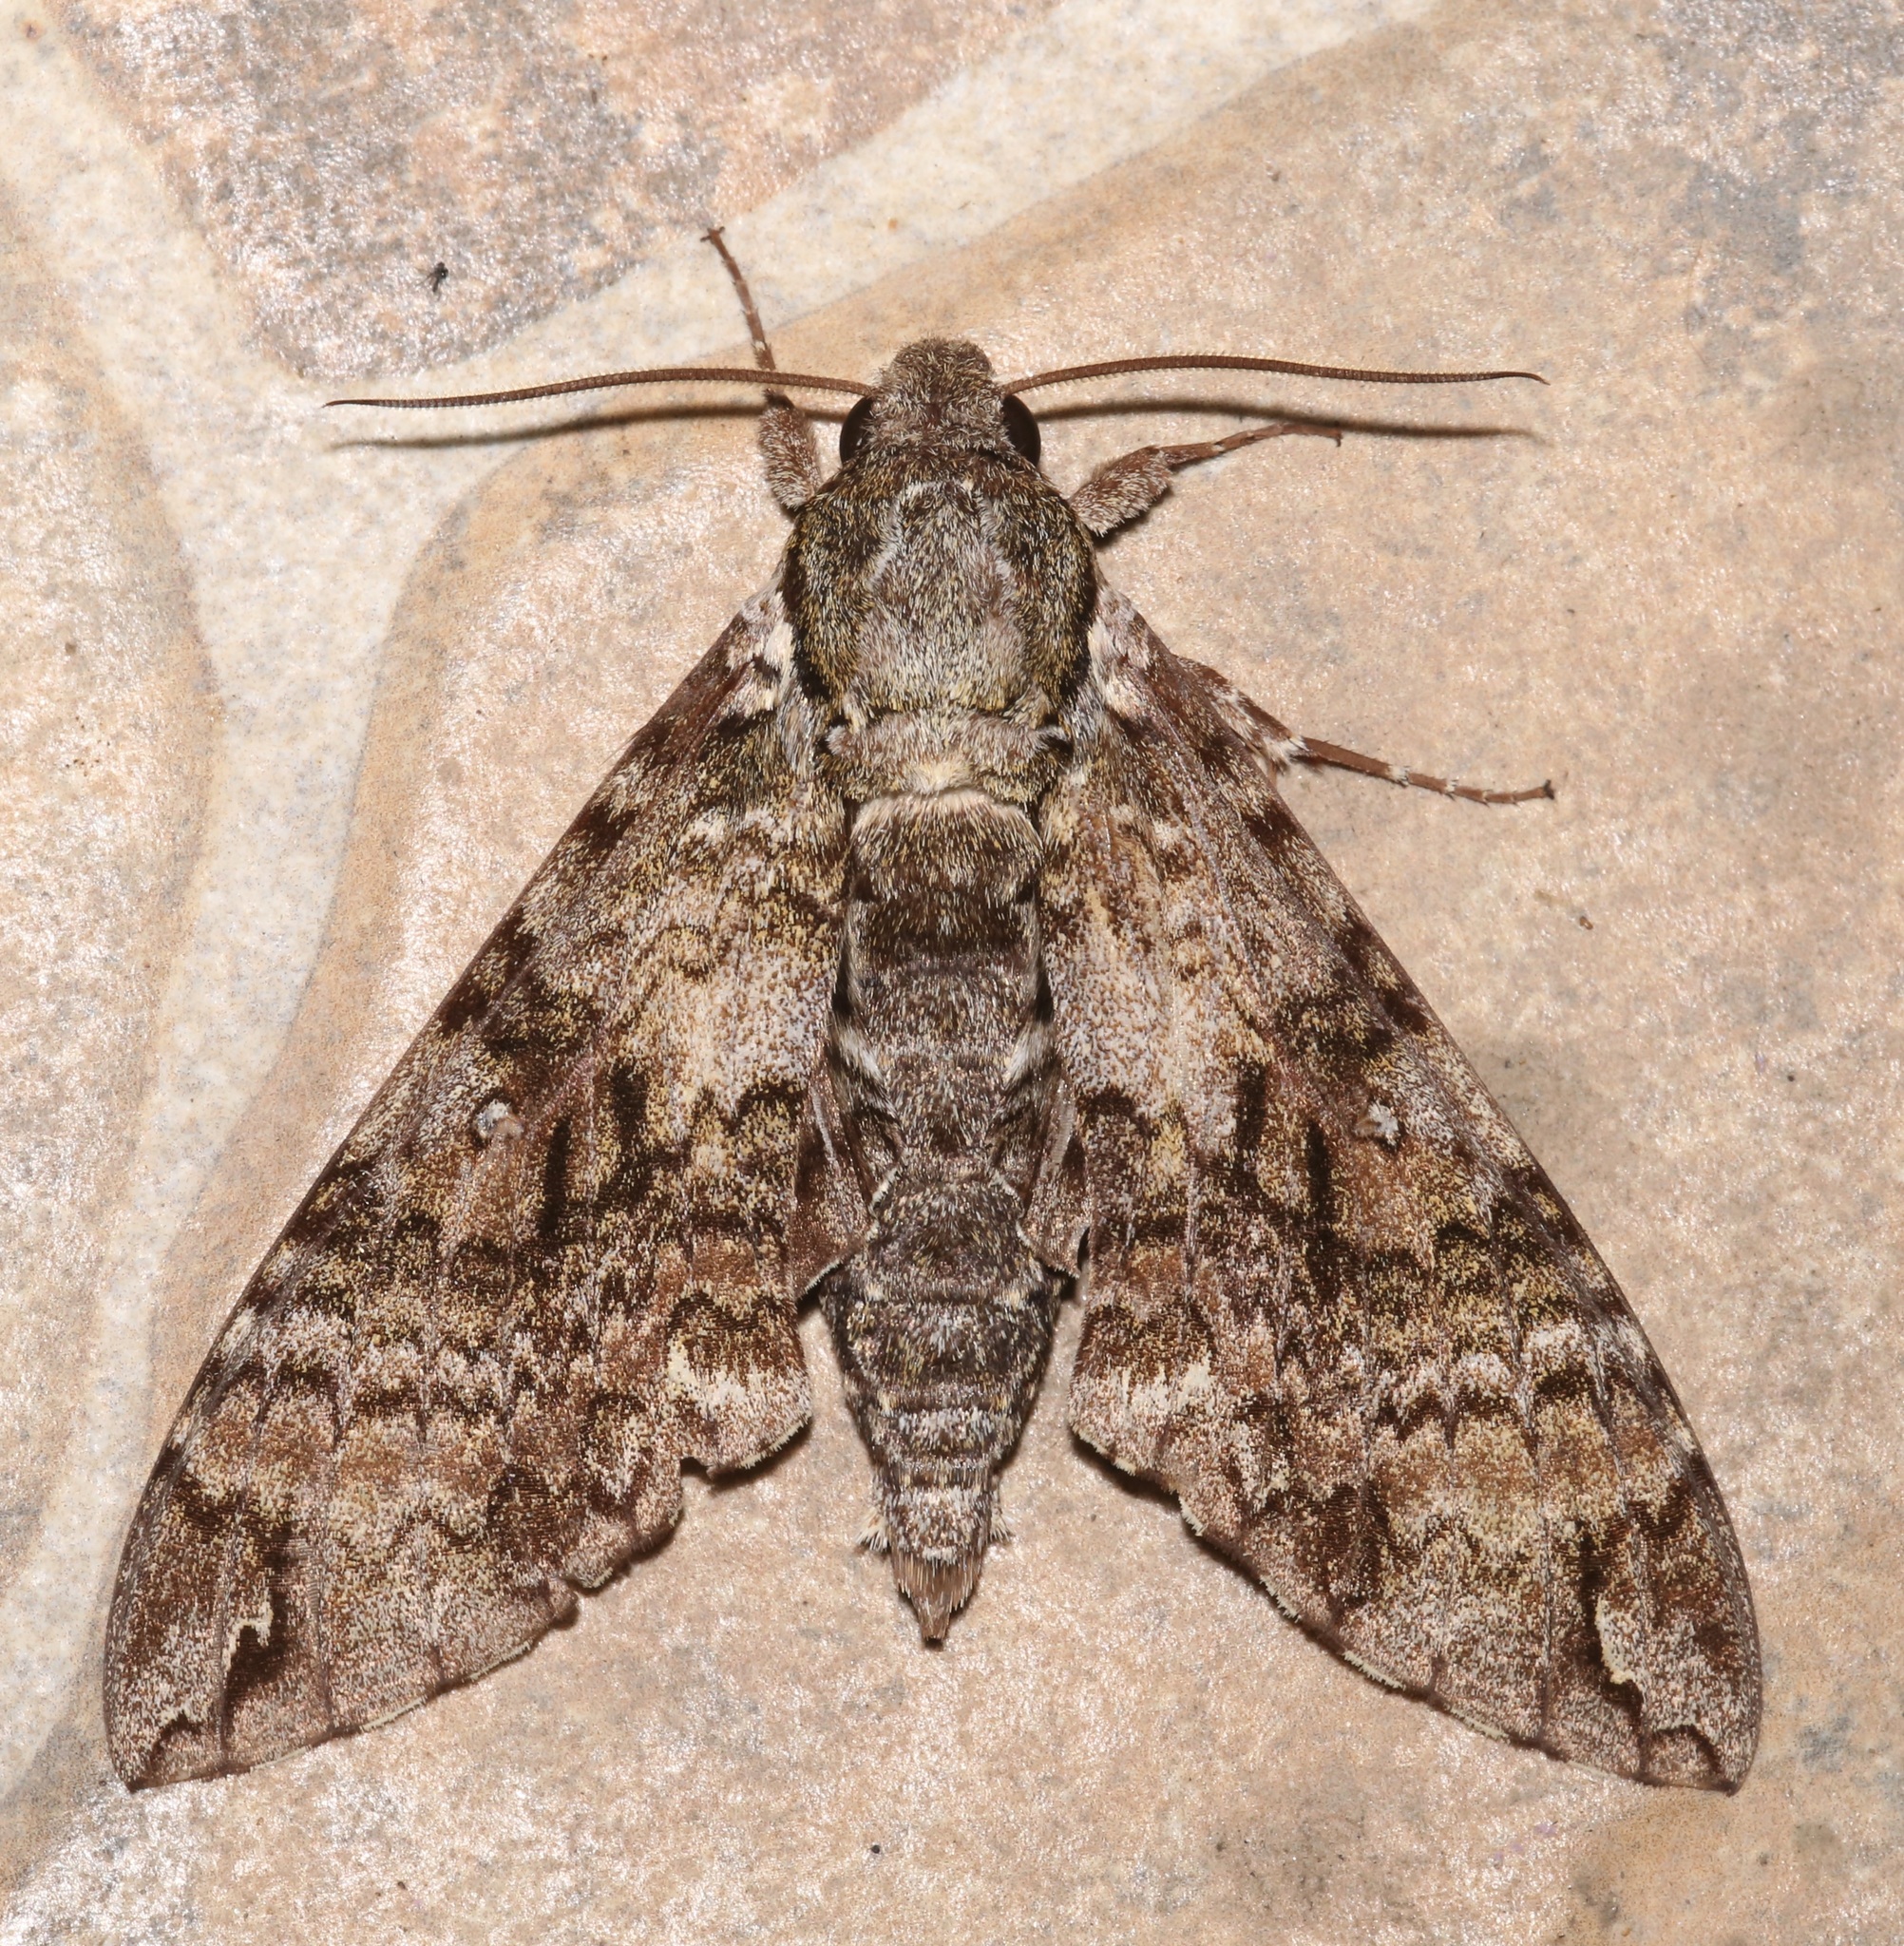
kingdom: Animalia
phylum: Arthropoda
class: Insecta
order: Lepidoptera
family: Sphingidae
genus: Manduca
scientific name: Manduca florestan
